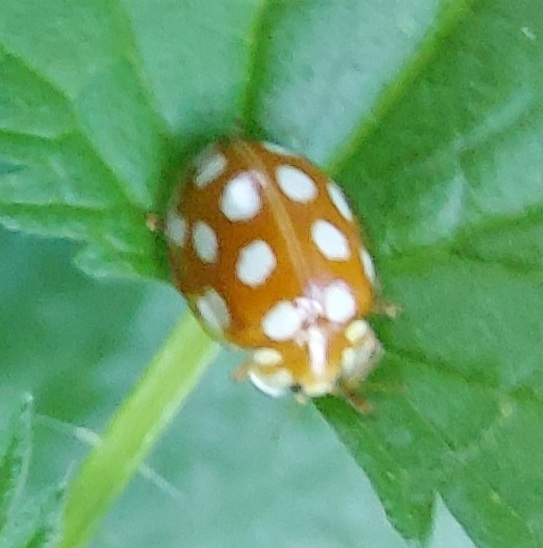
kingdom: Animalia
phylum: Arthropoda
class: Insecta
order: Coleoptera
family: Coccinellidae
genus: Halyzia
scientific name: Halyzia sedecimguttata
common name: Orange ladybird
